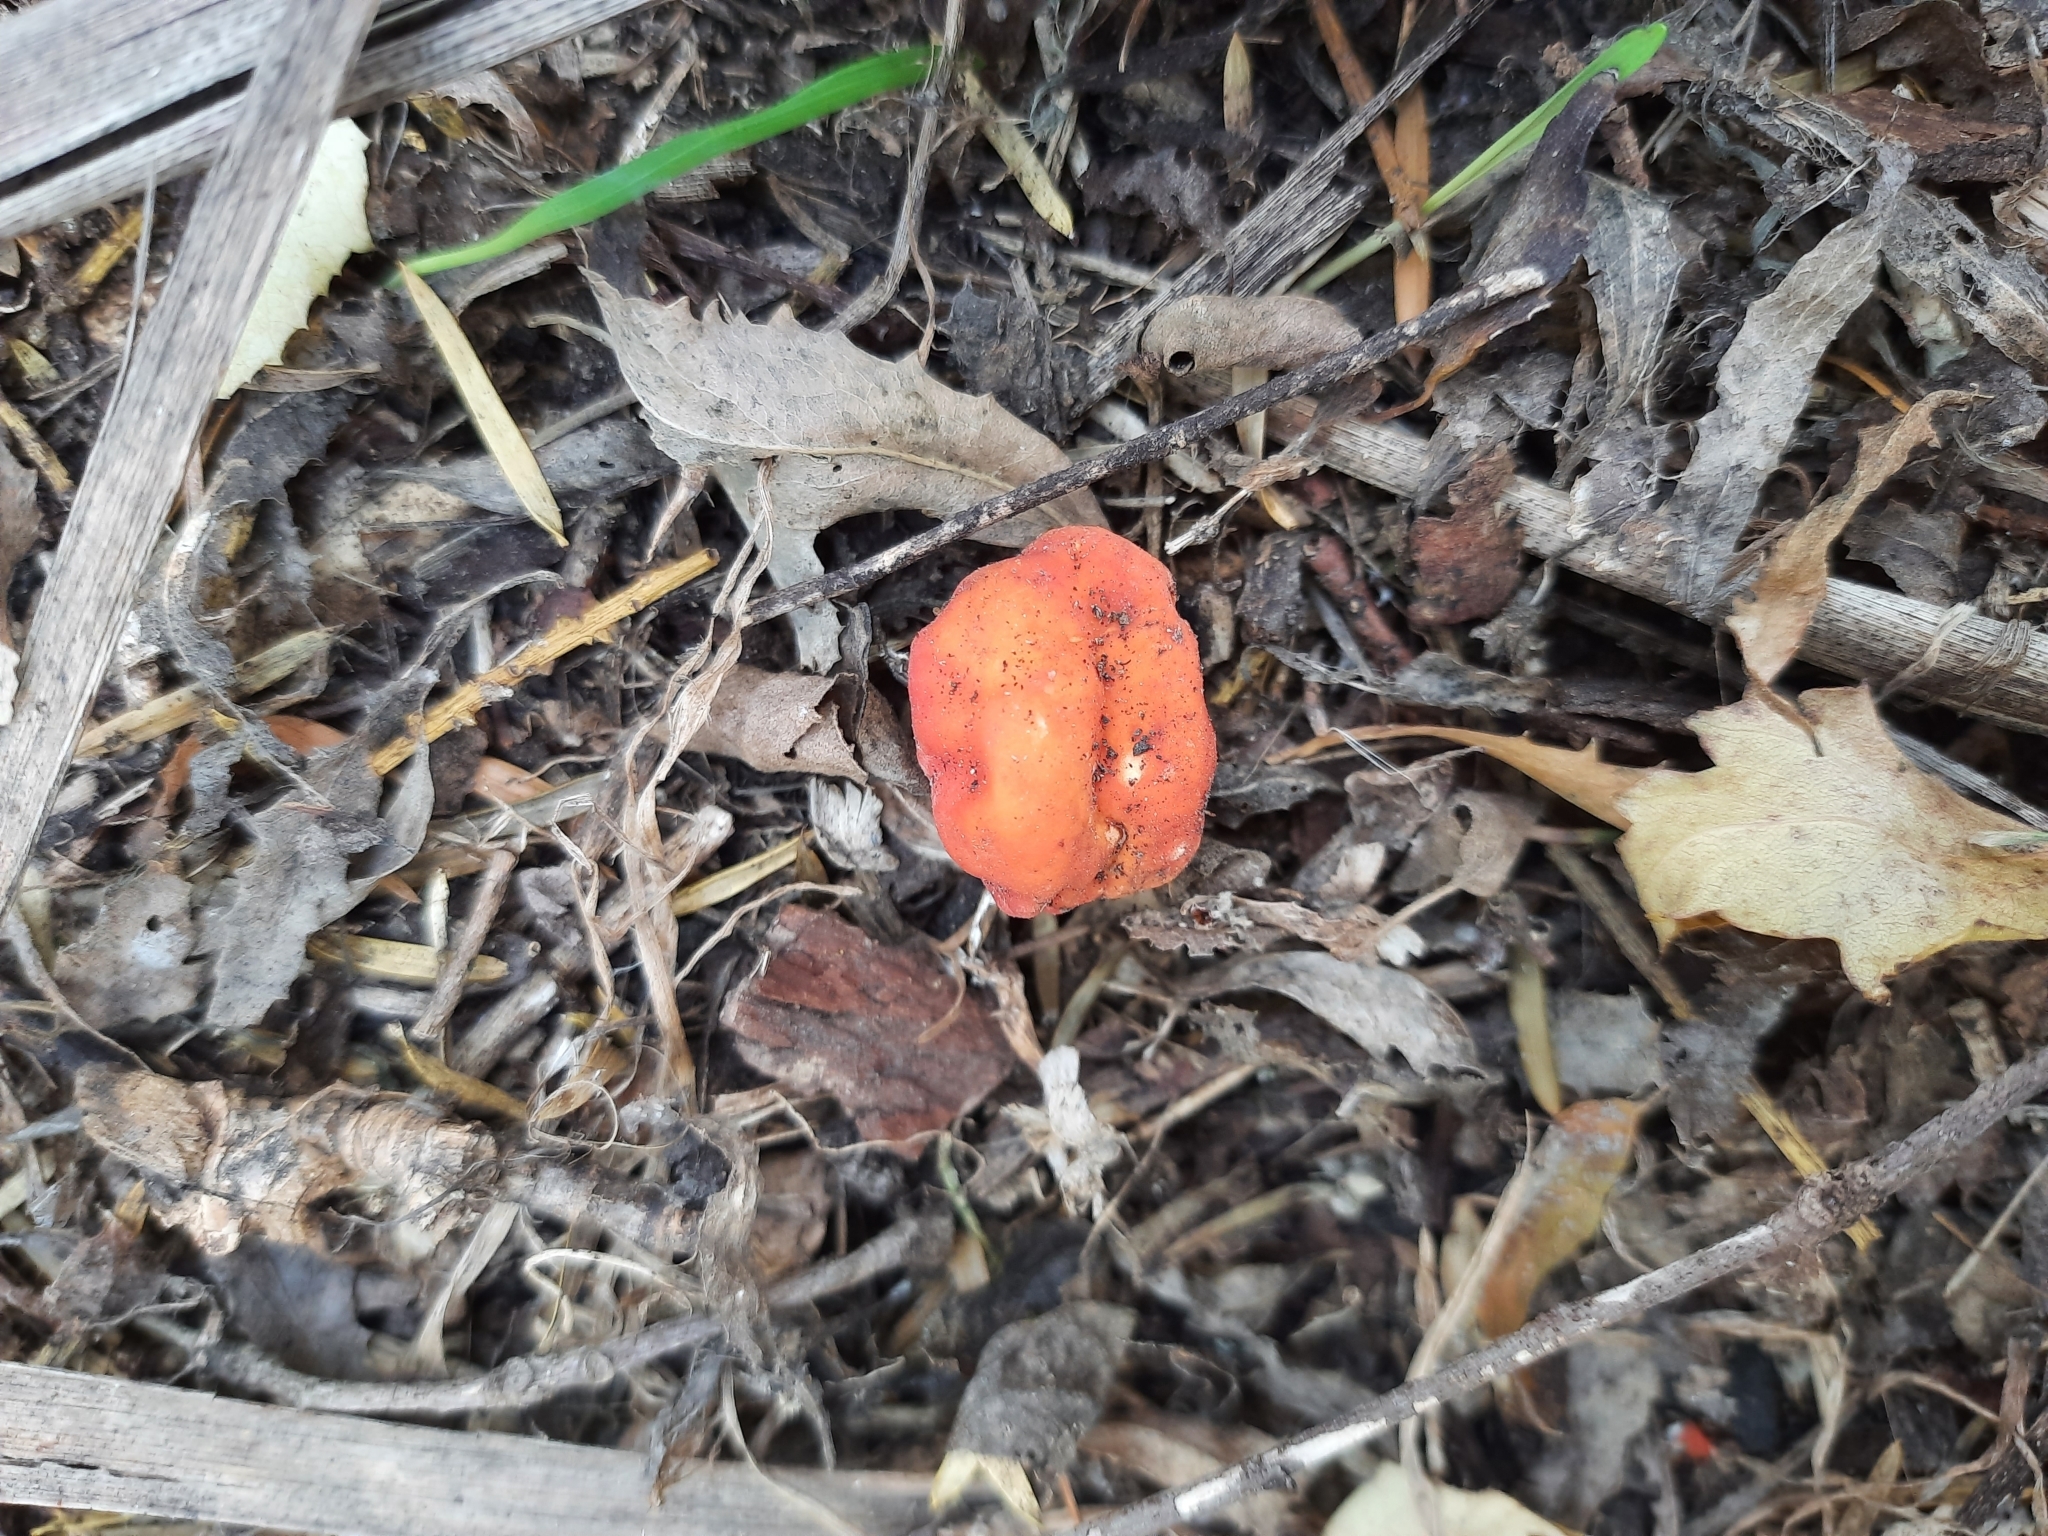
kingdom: Fungi
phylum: Ascomycota
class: Pezizomycetes
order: Pezizales
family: Pyronemataceae
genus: Paurocotylis
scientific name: Paurocotylis pila
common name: Scarlet berry truffle
